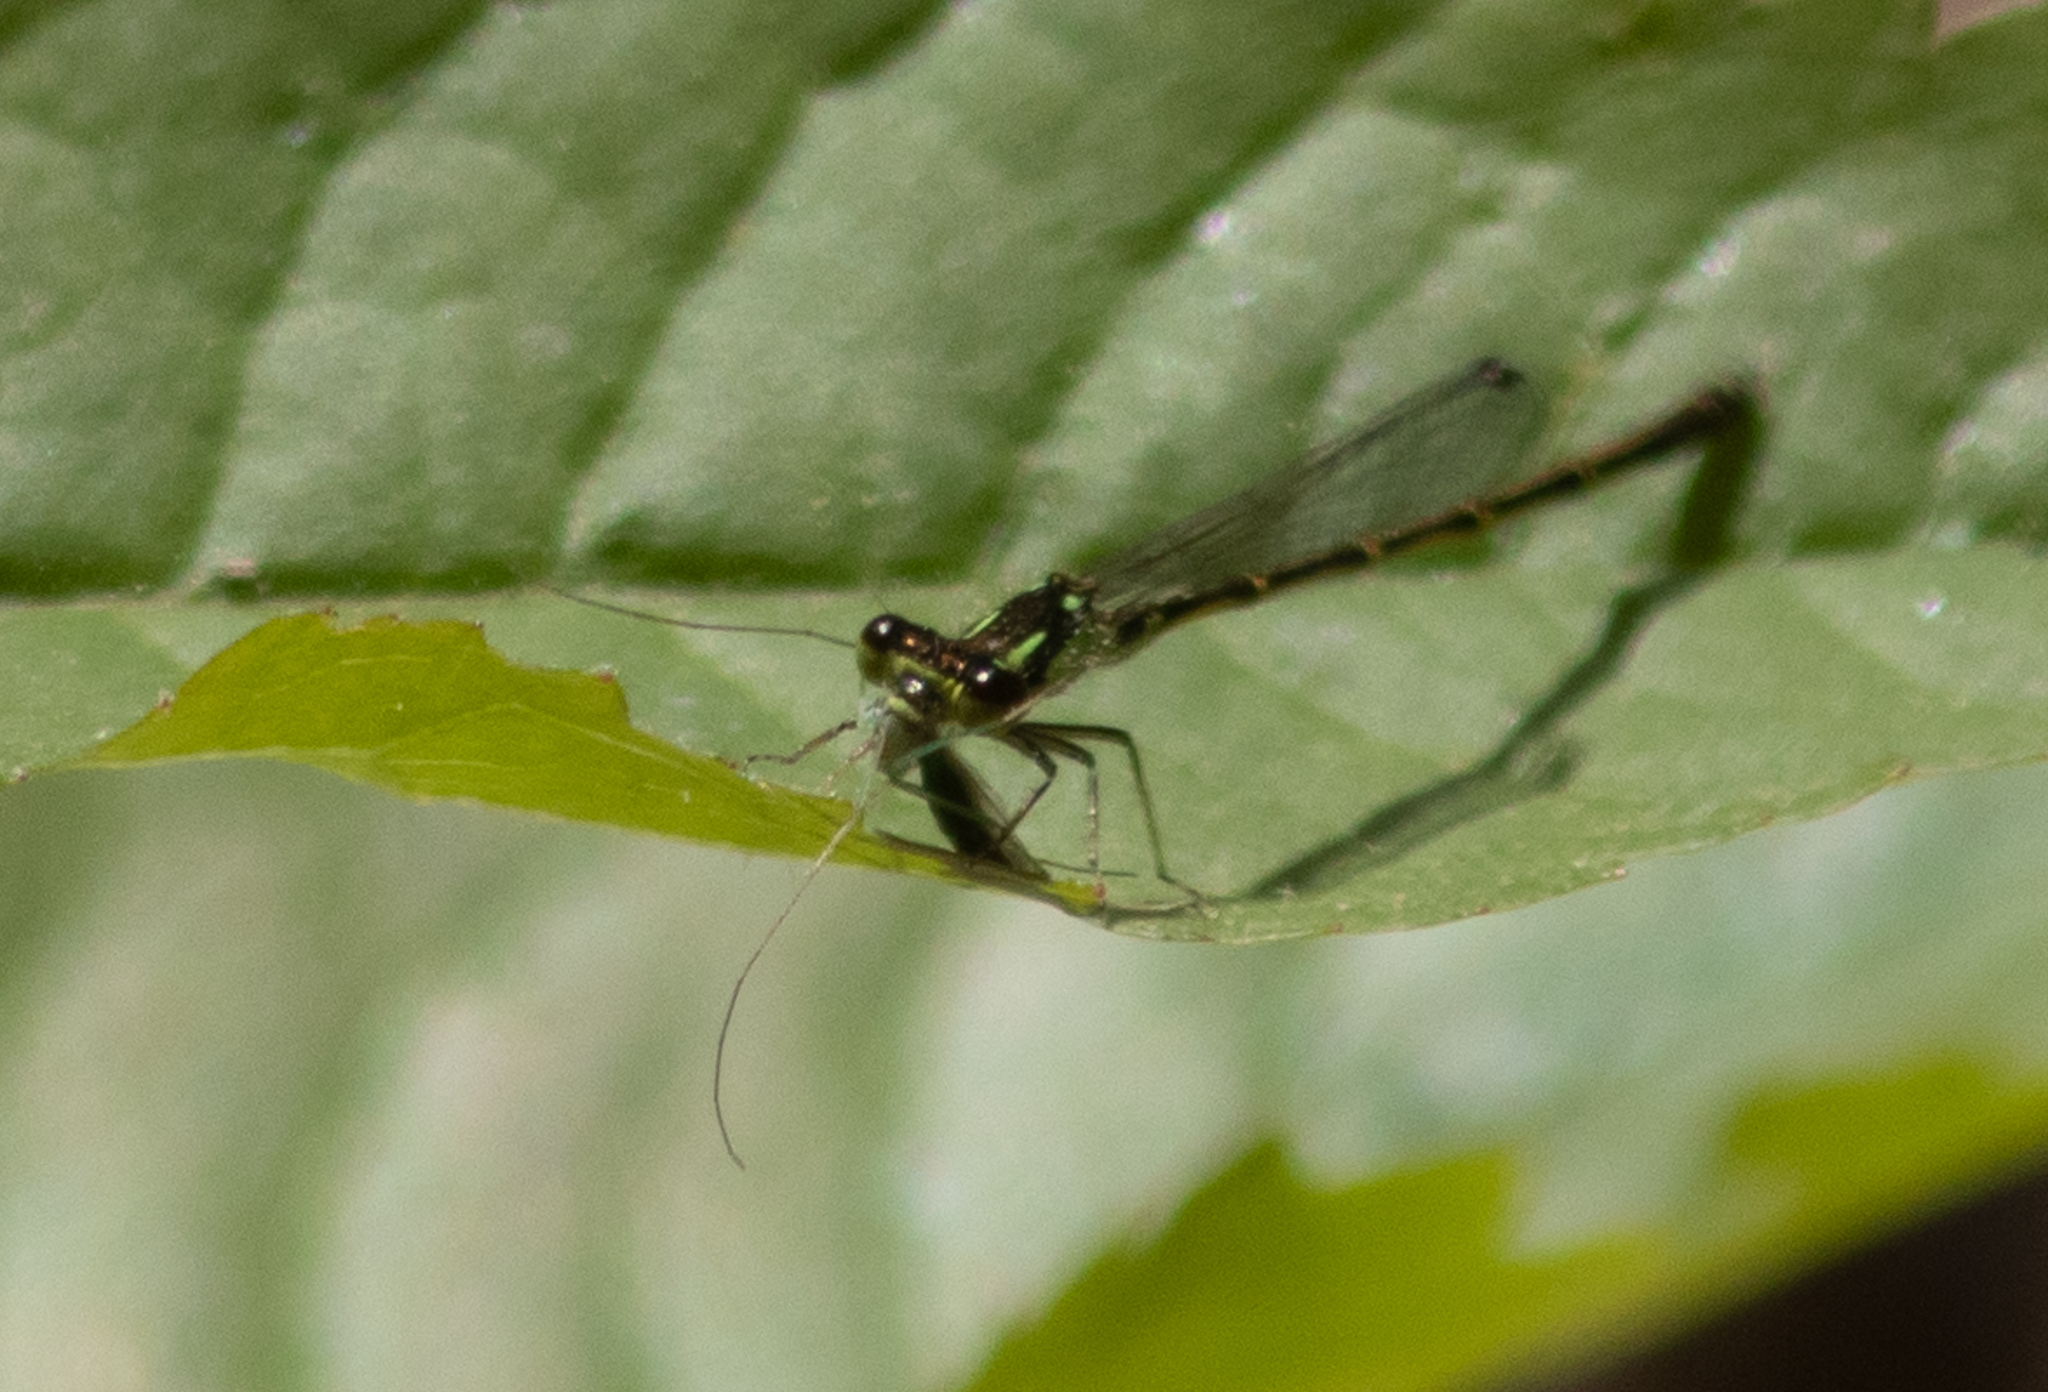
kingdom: Animalia
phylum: Arthropoda
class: Insecta
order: Odonata
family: Coenagrionidae
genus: Ischnura
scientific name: Ischnura posita
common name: Fragile forktail
